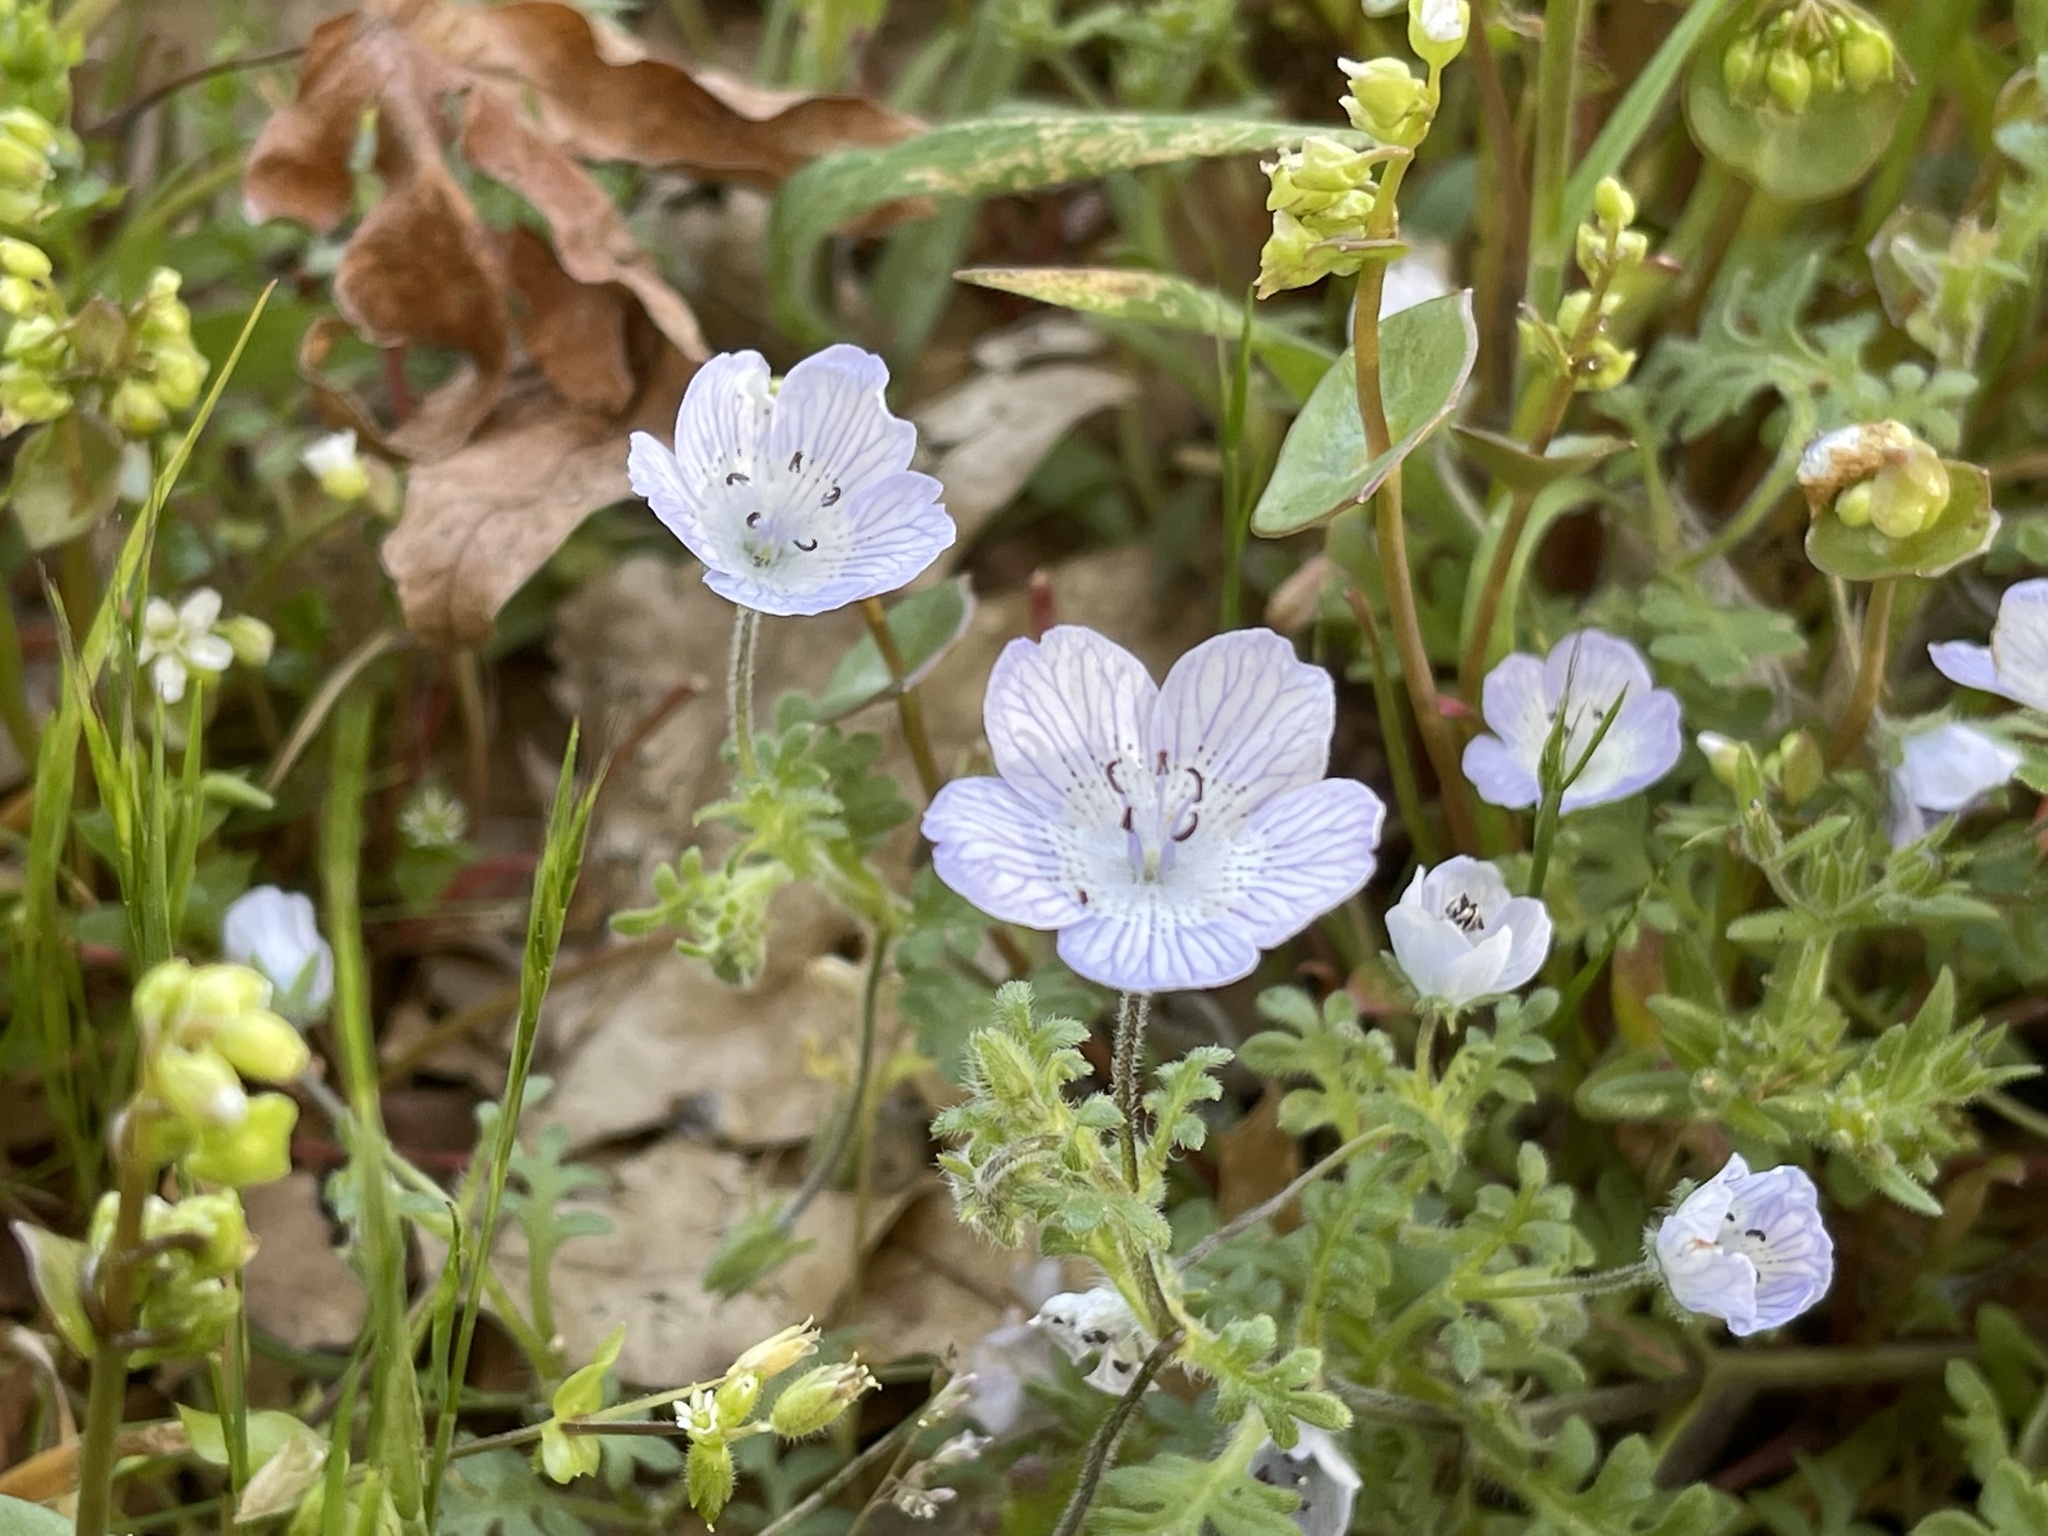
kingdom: Plantae
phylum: Tracheophyta
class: Magnoliopsida
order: Boraginales
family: Hydrophyllaceae
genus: Nemophila
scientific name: Nemophila menziesii
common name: Baby's-blue-eyes
